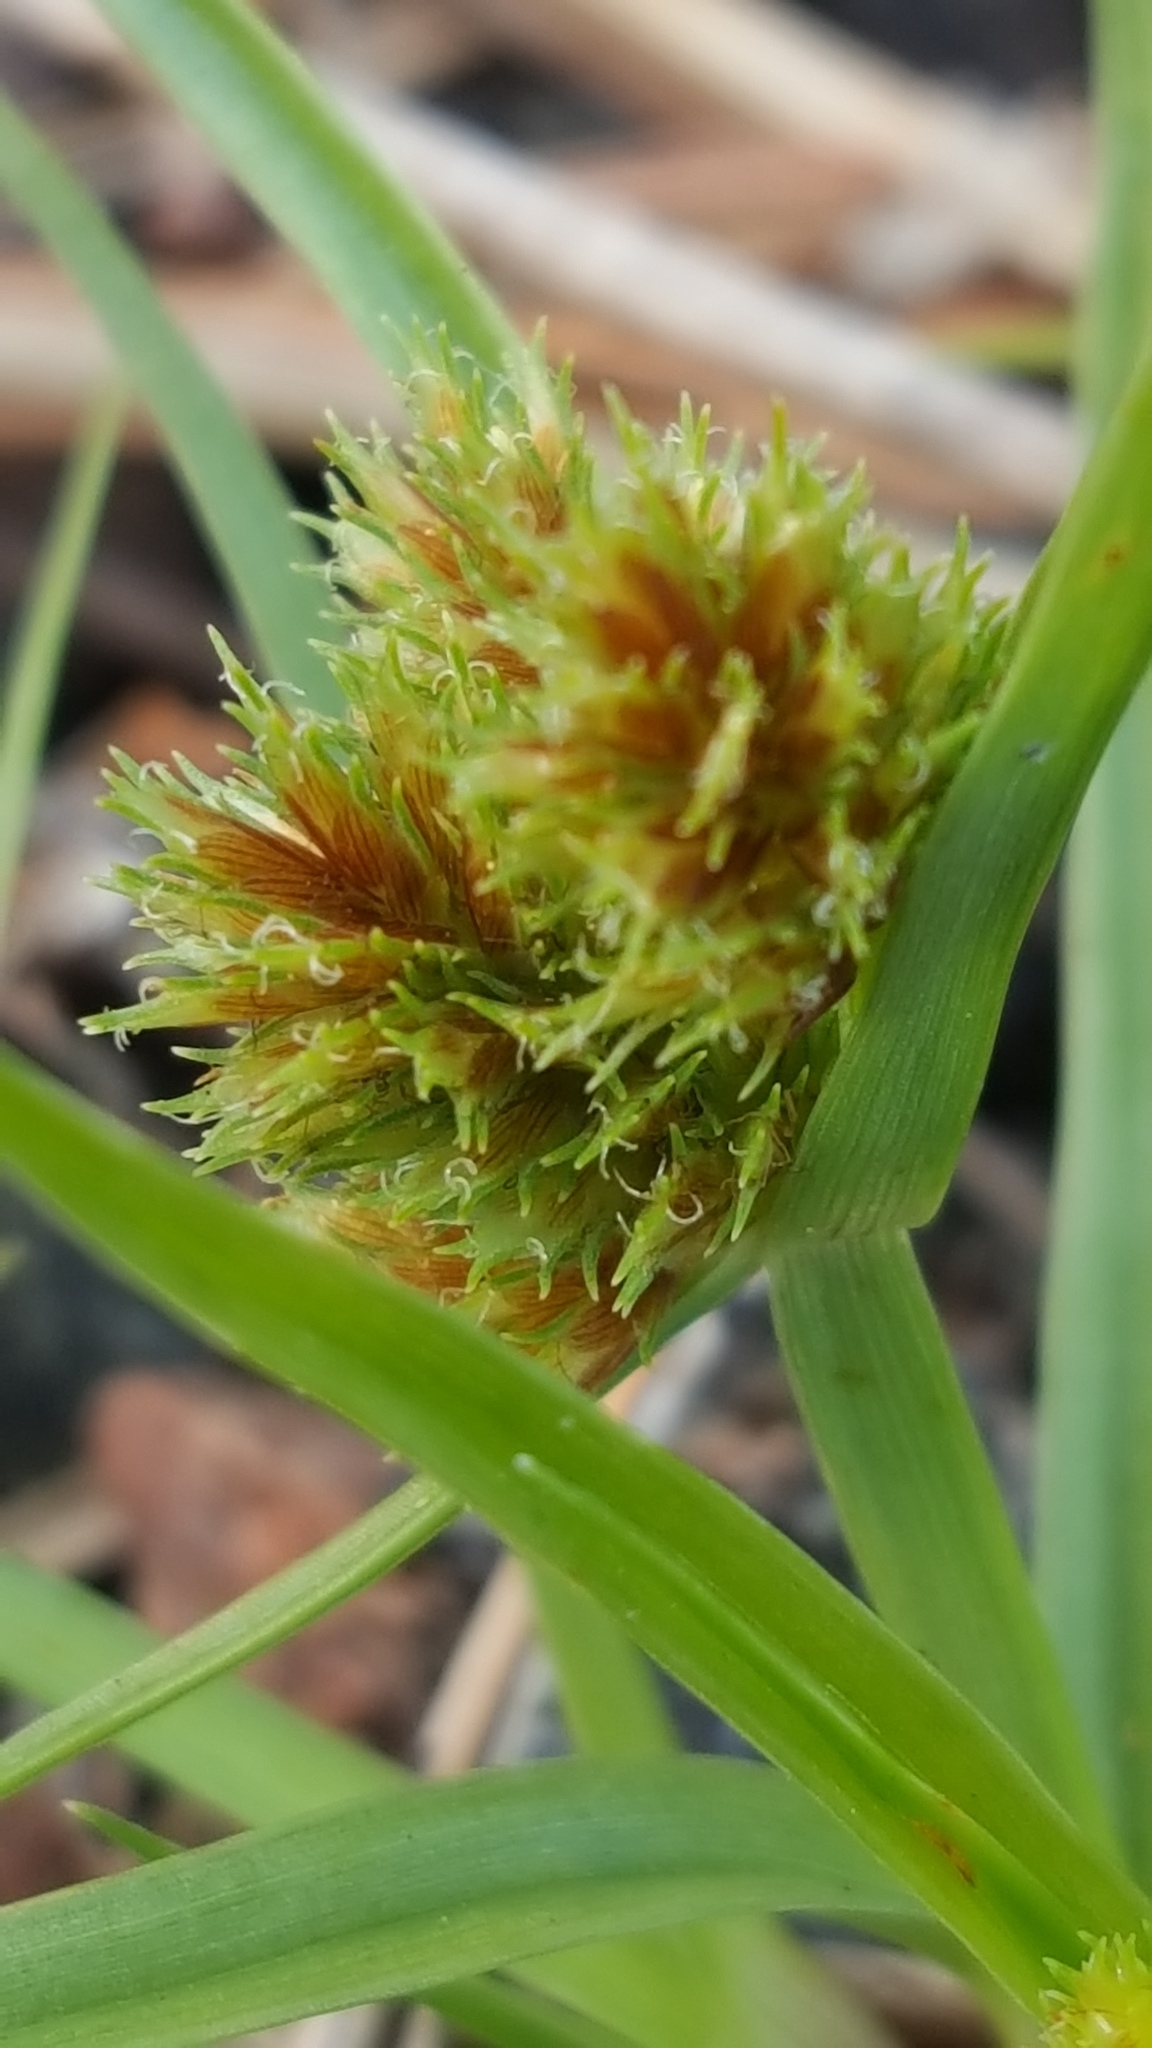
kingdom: Plantae
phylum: Tracheophyta
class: Liliopsida
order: Poales
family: Cyperaceae
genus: Cyperus
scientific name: Cyperus squarrosus
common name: Awned cyperus
